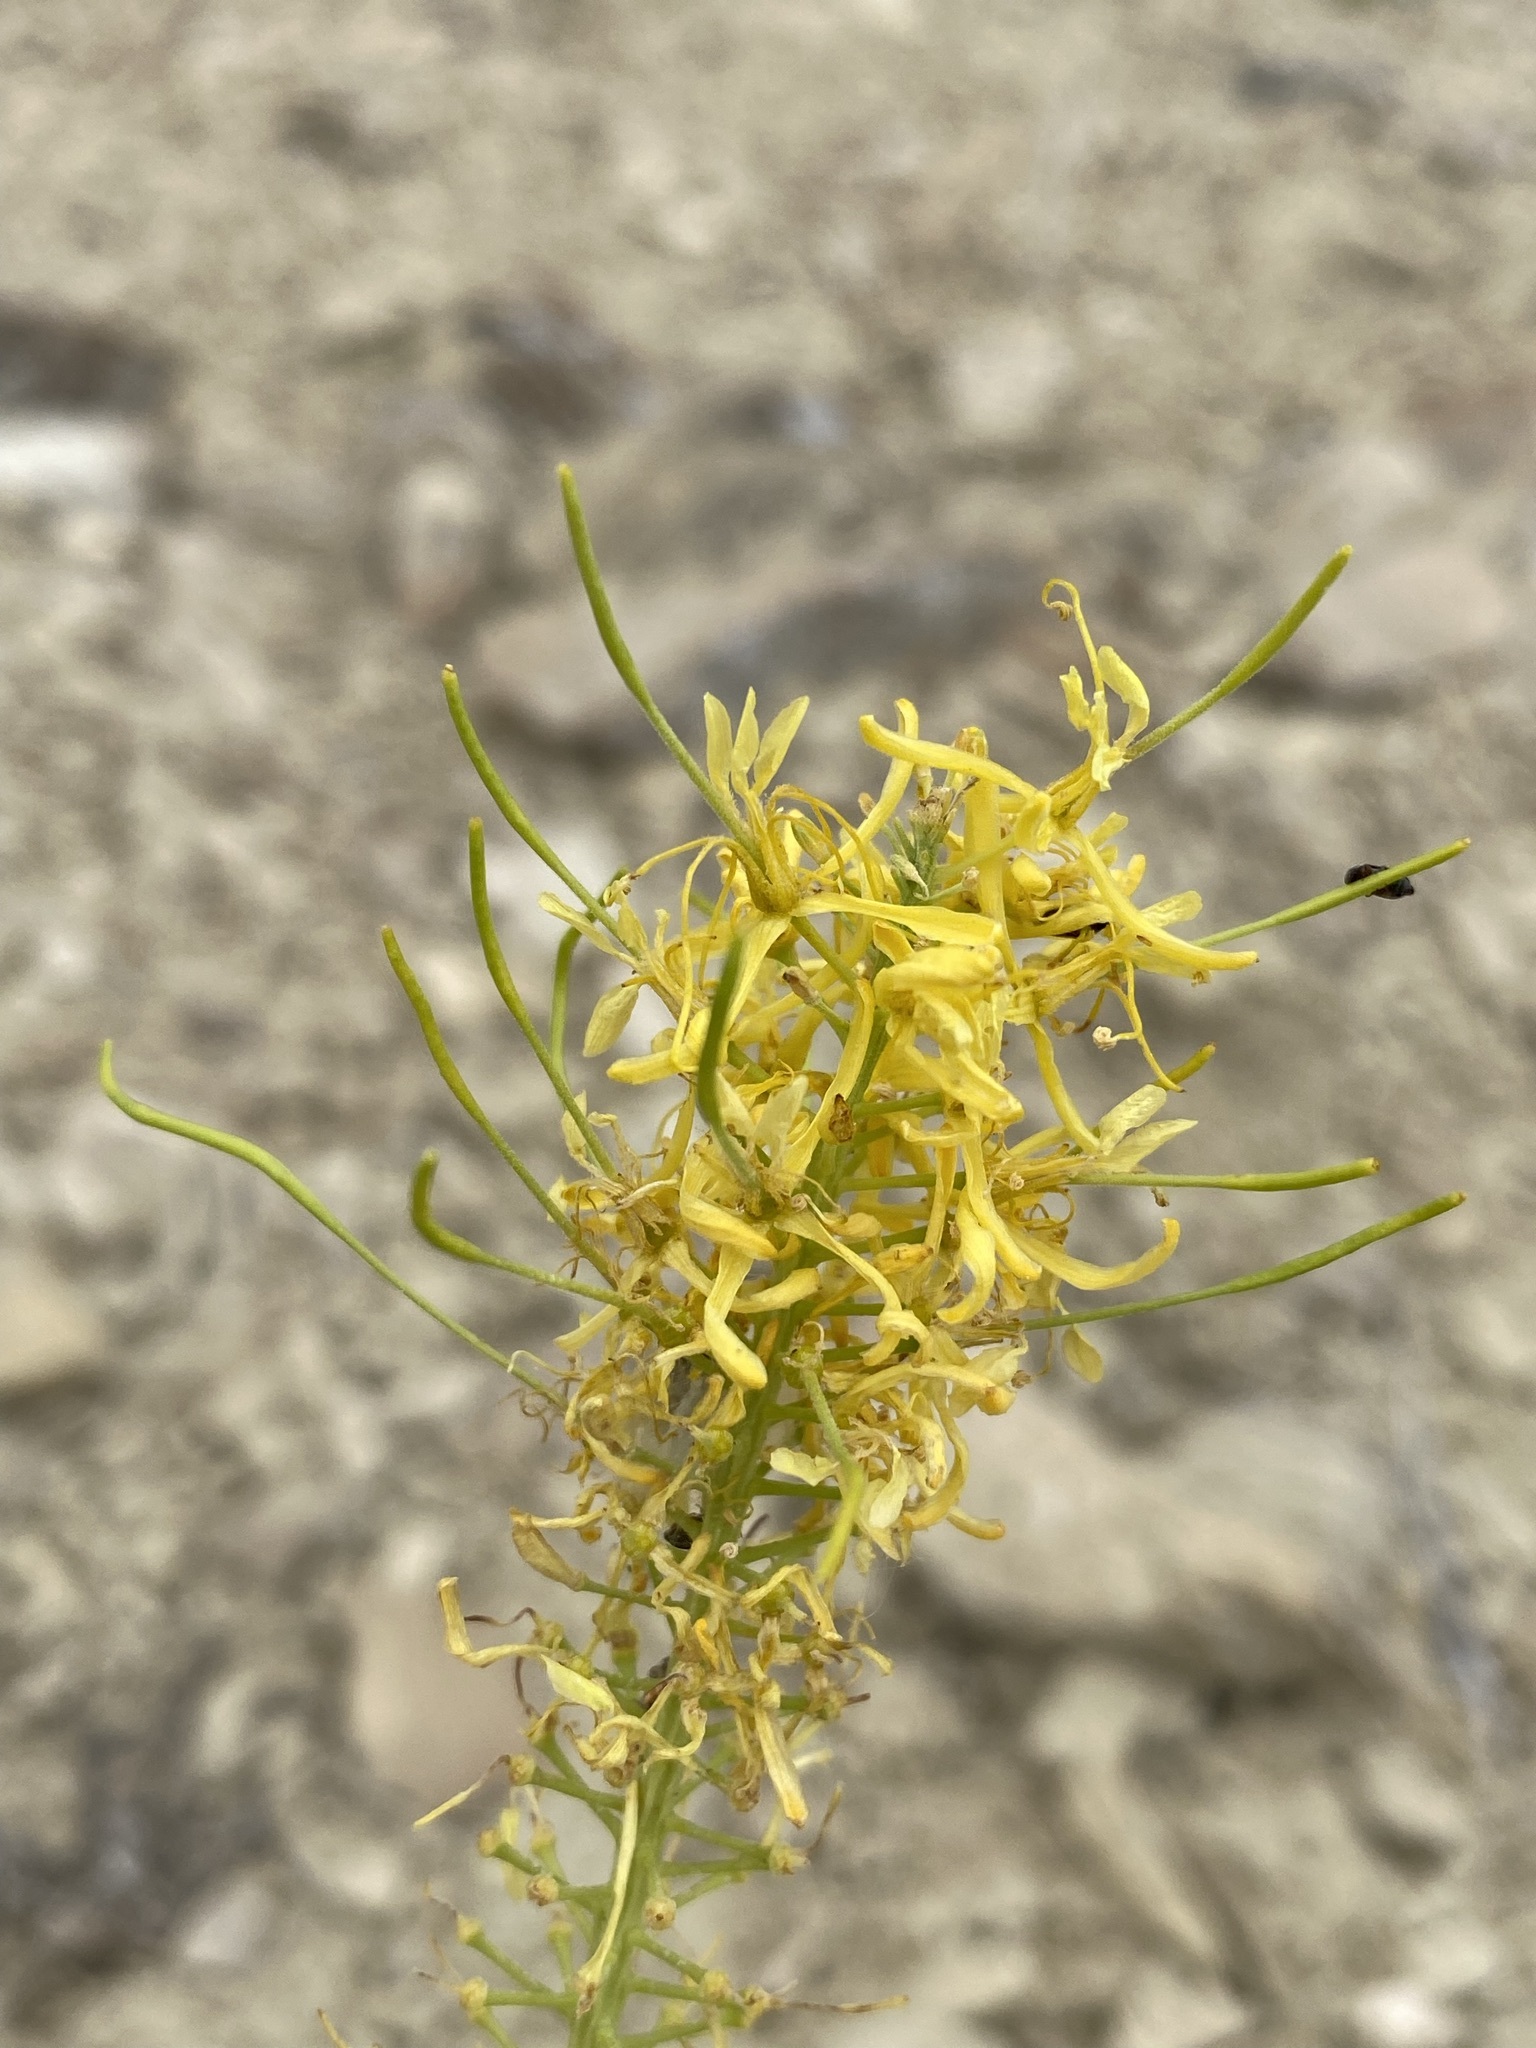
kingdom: Plantae
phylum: Tracheophyta
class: Magnoliopsida
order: Brassicales
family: Brassicaceae
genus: Stanleya
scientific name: Stanleya pinnata
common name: Prince's-plume
